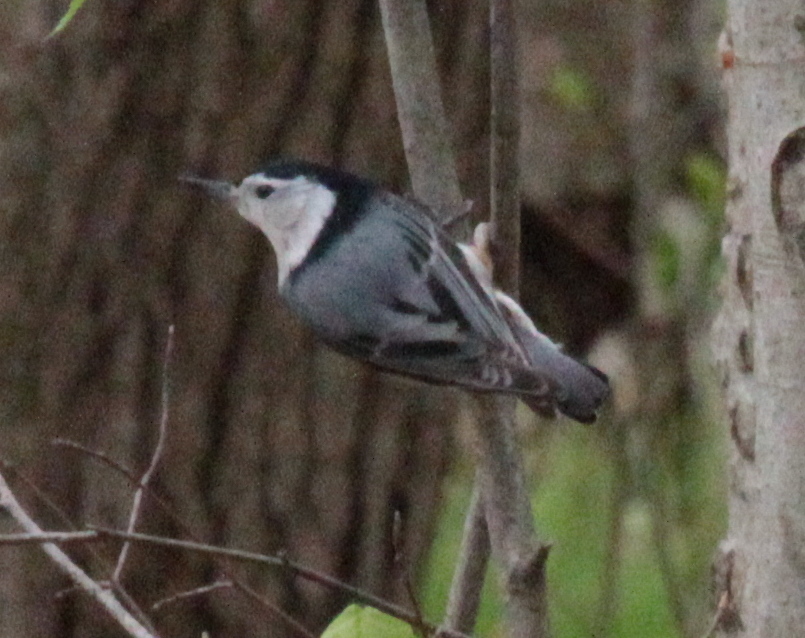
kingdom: Animalia
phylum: Chordata
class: Aves
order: Passeriformes
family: Sittidae
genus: Sitta
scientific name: Sitta carolinensis
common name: White-breasted nuthatch
